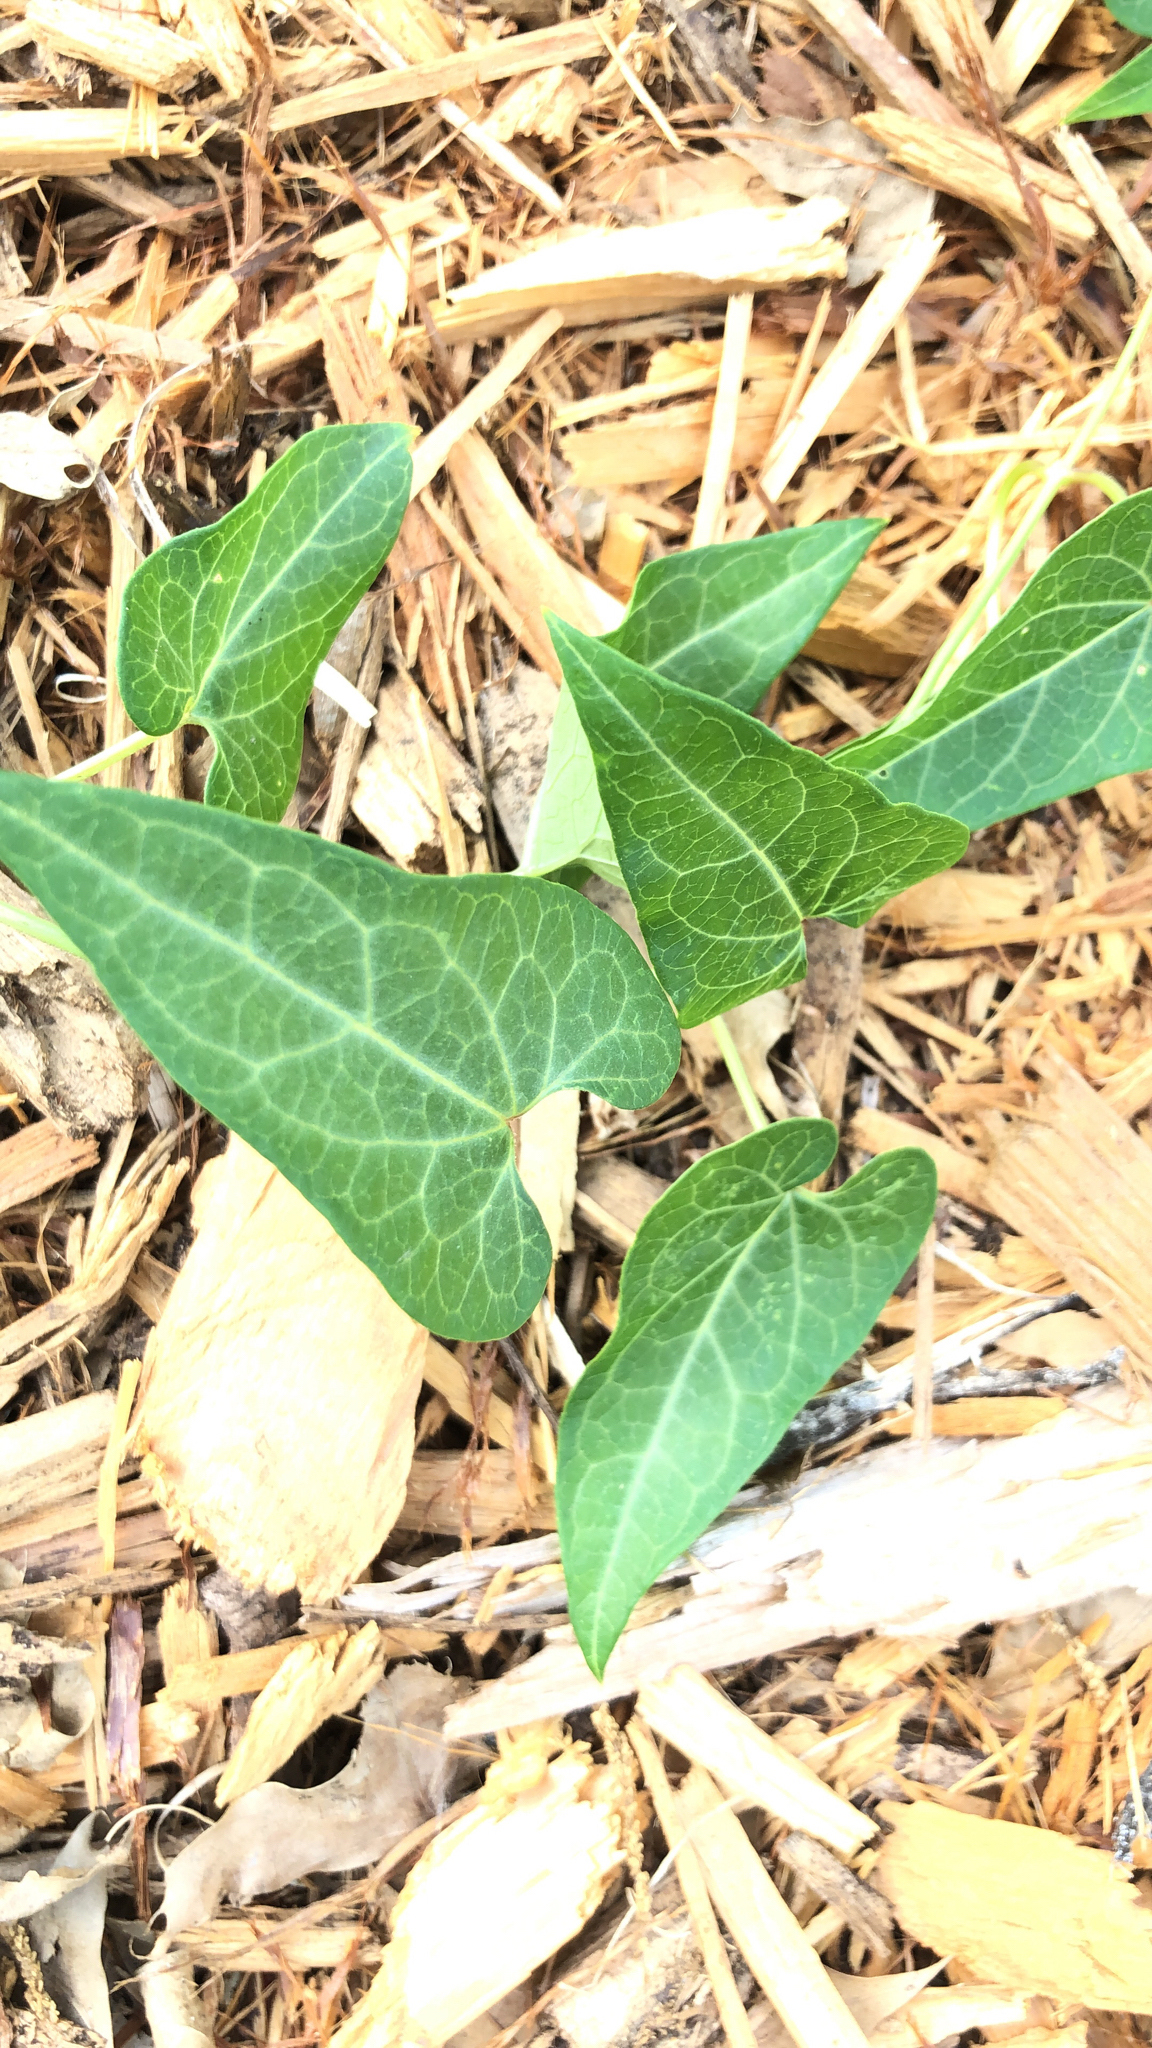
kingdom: Plantae
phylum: Tracheophyta
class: Magnoliopsida
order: Gentianales
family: Apocynaceae
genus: Cynanchum
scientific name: Cynanchum laeve
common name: Sandvine
